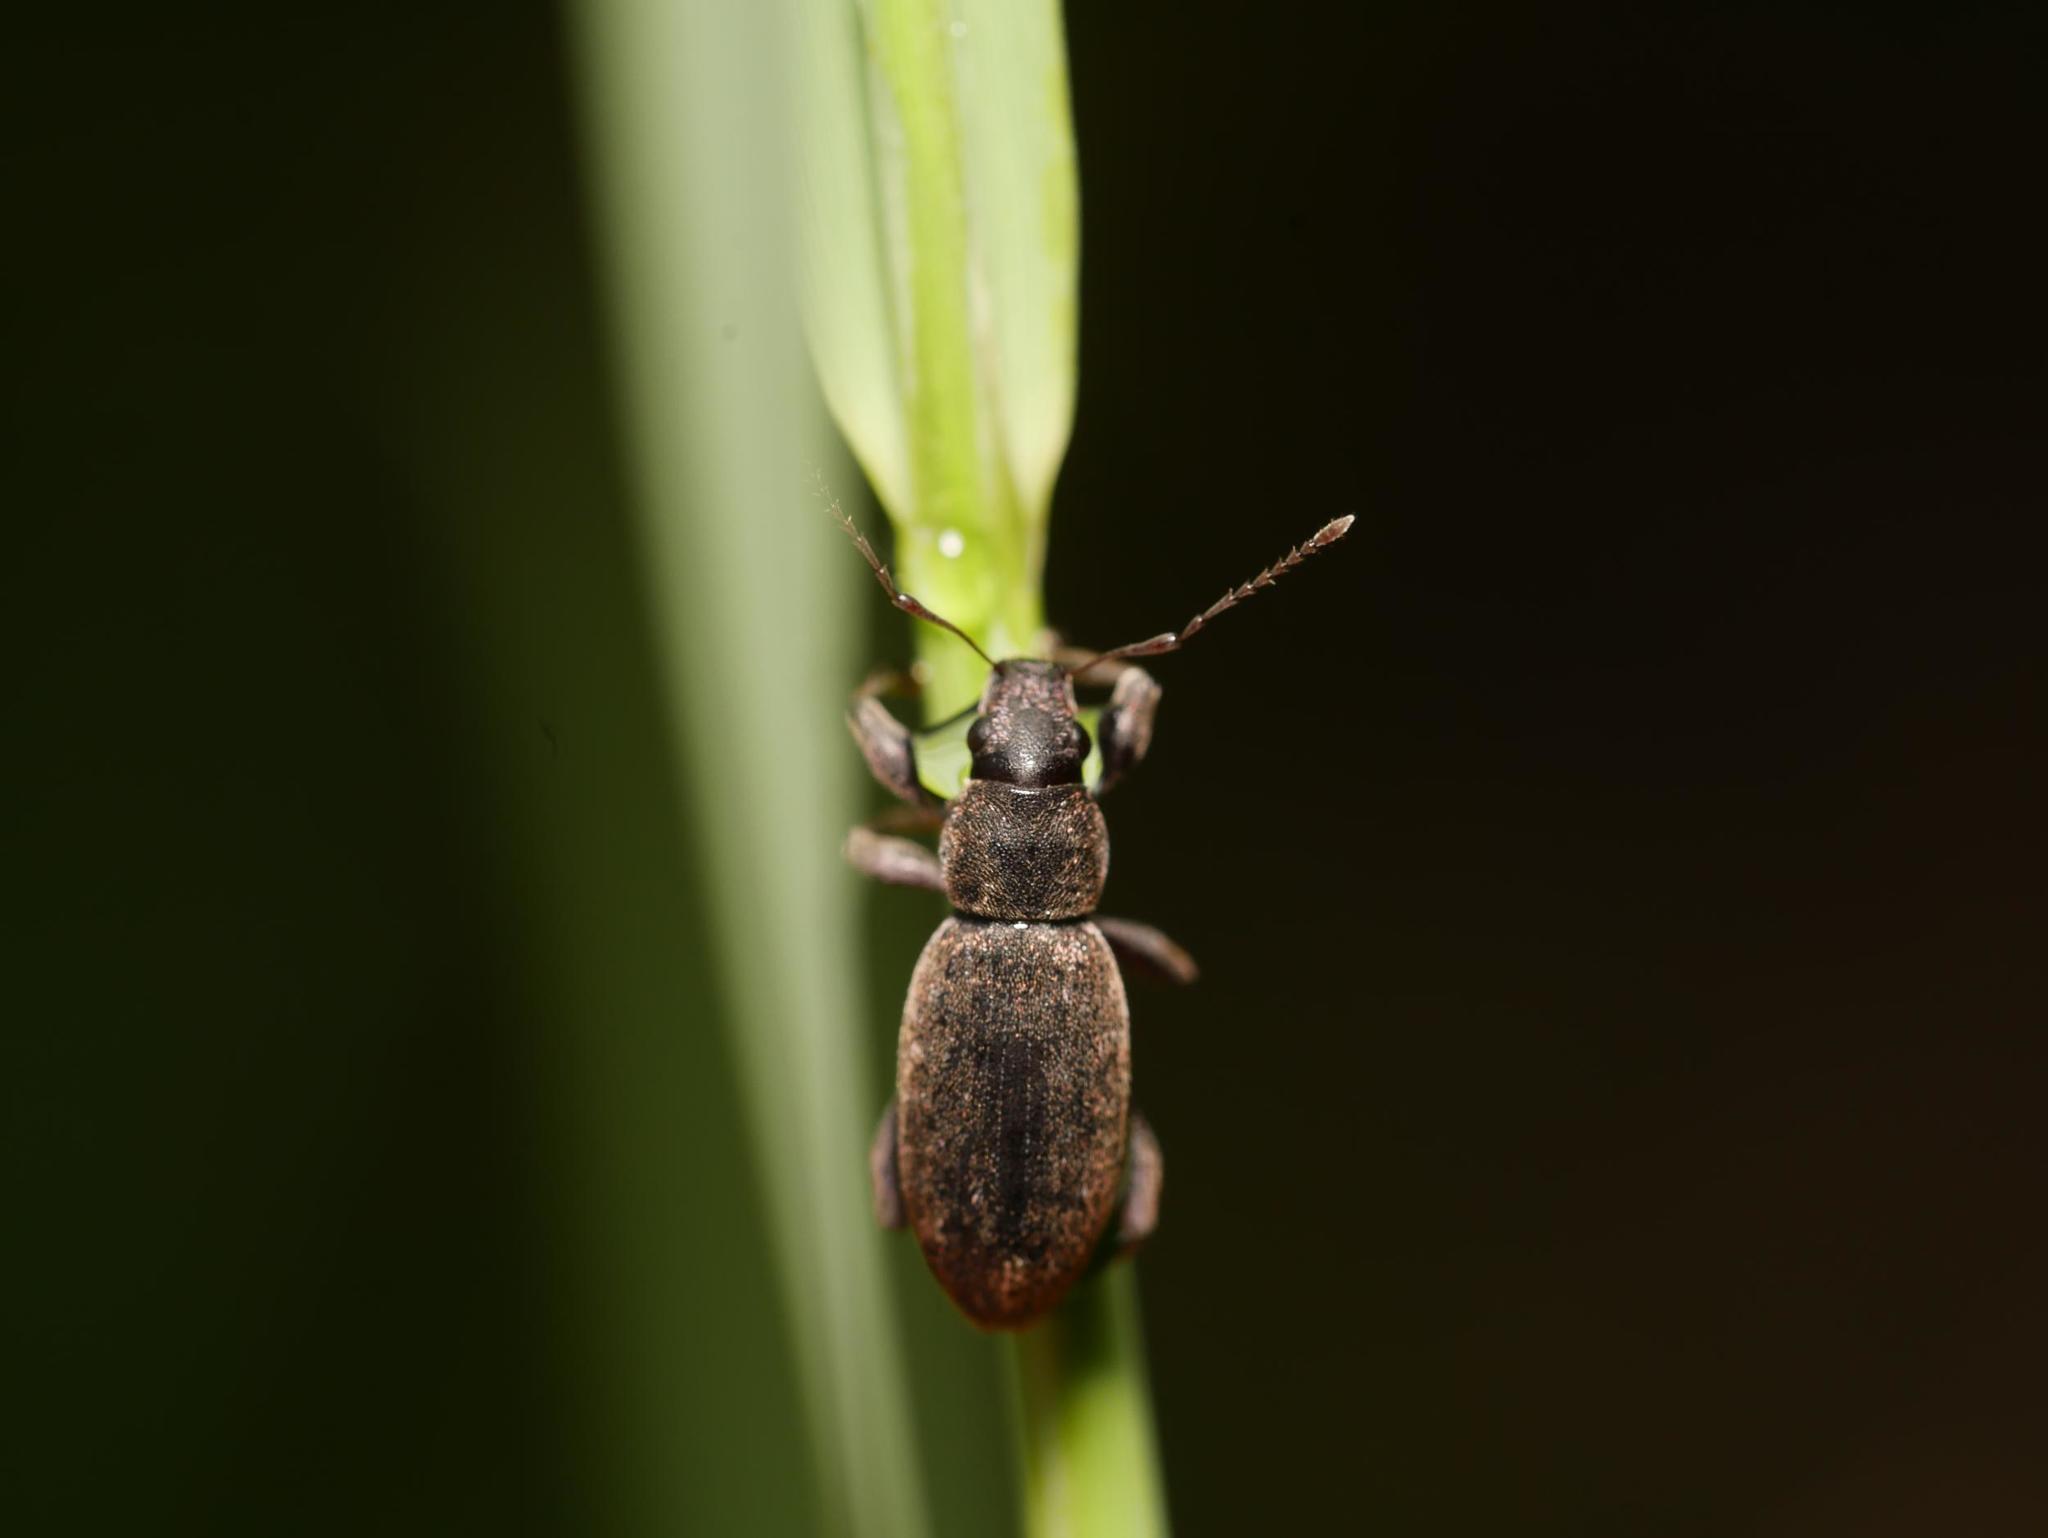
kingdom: Animalia
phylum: Arthropoda
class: Insecta
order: Coleoptera
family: Curculionidae
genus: Brachyderes
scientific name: Brachyderes incanus
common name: Weevil
